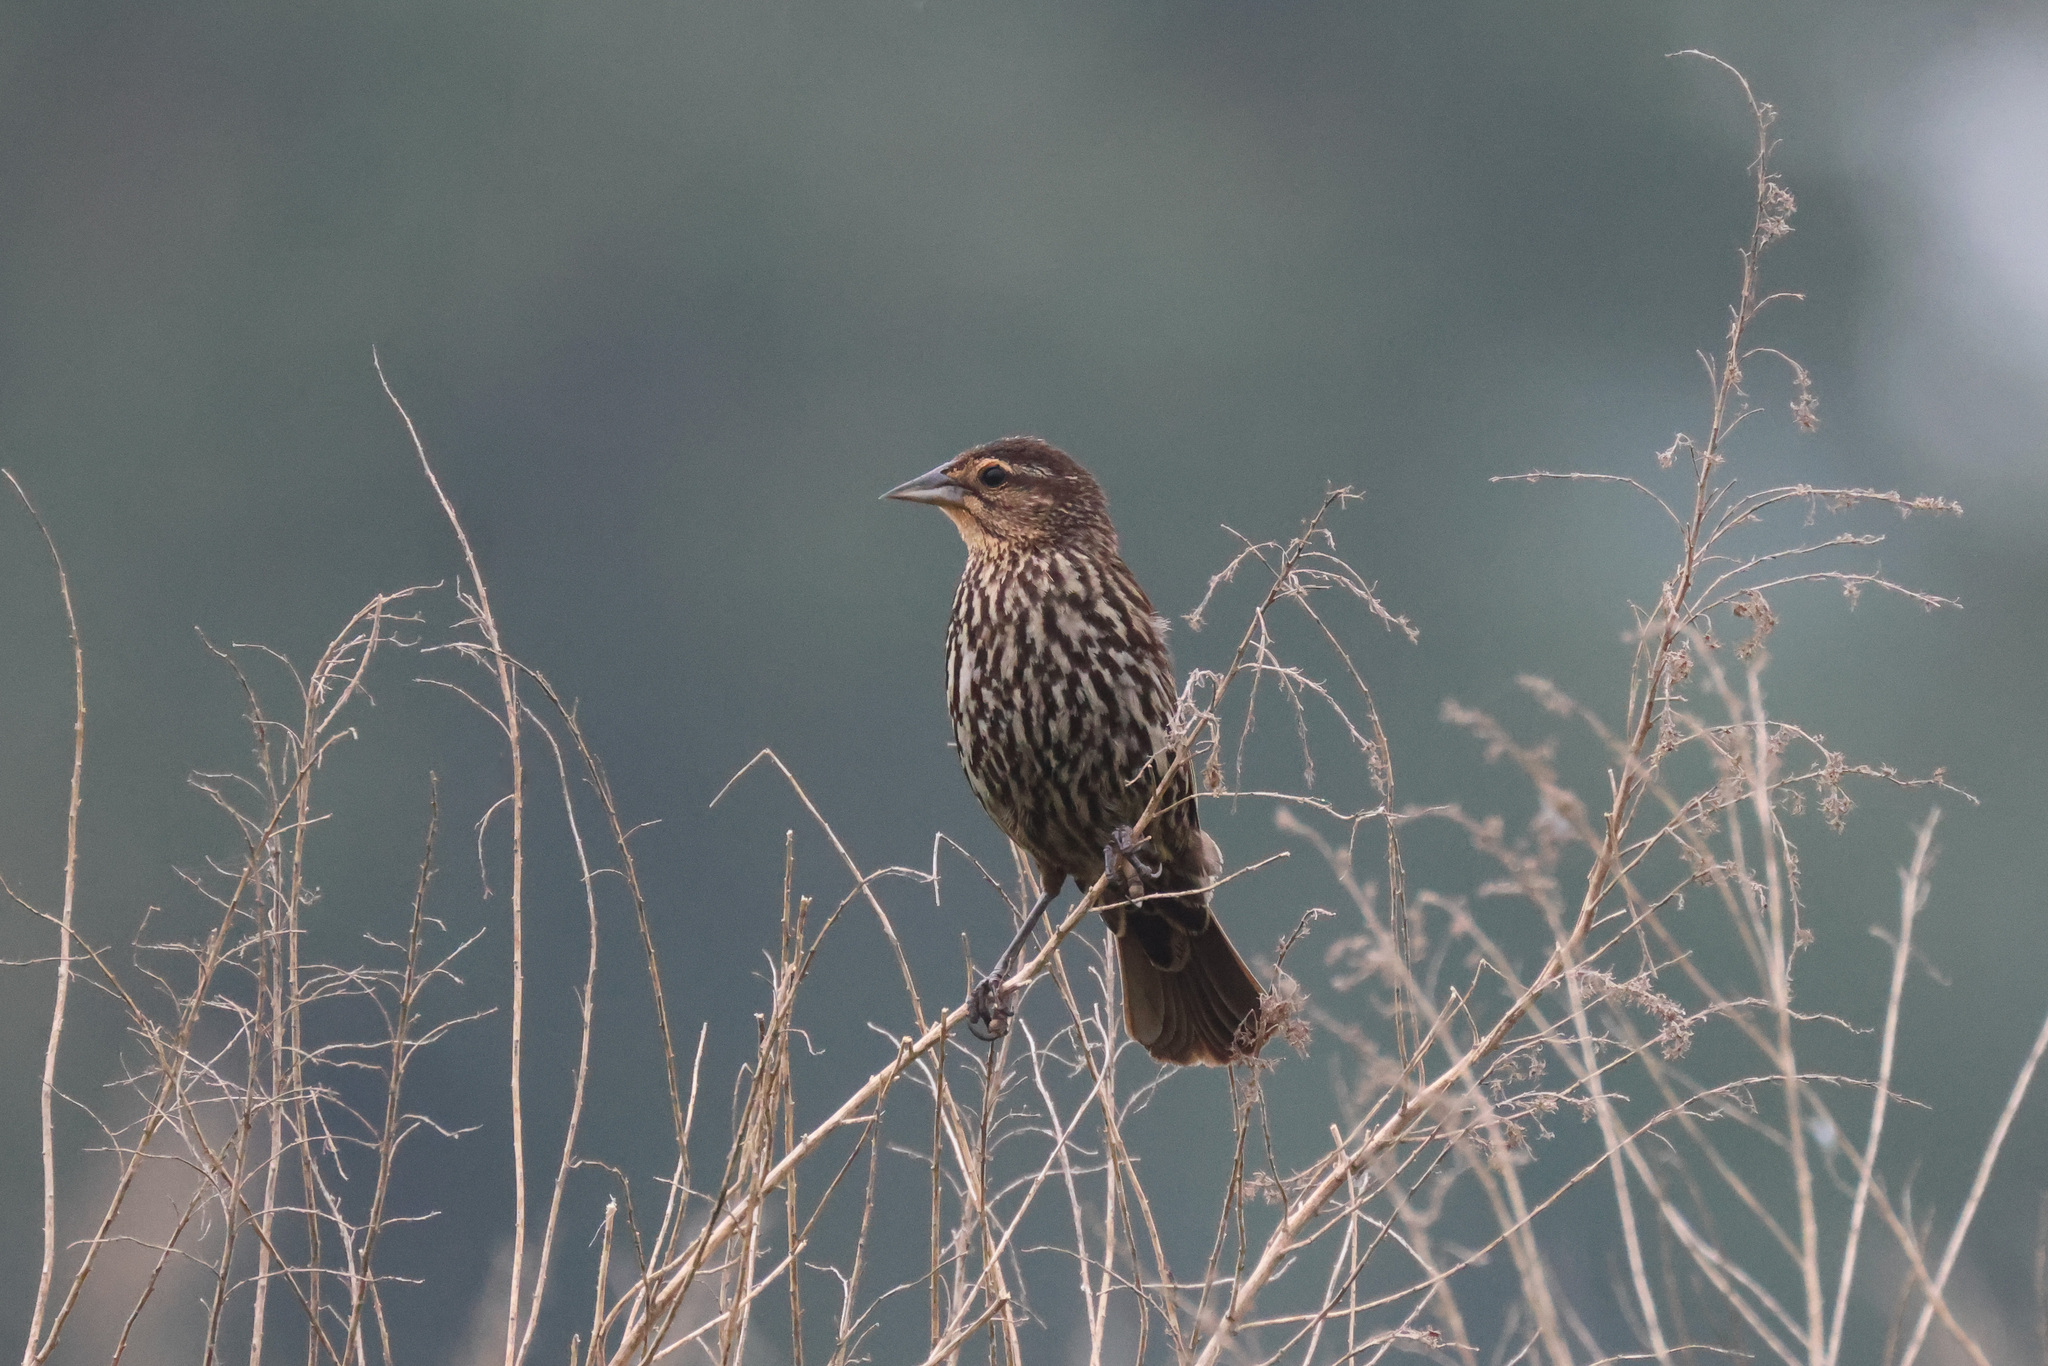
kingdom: Animalia
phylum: Chordata
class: Aves
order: Passeriformes
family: Icteridae
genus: Agelaius
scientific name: Agelaius phoeniceus
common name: Red-winged blackbird
